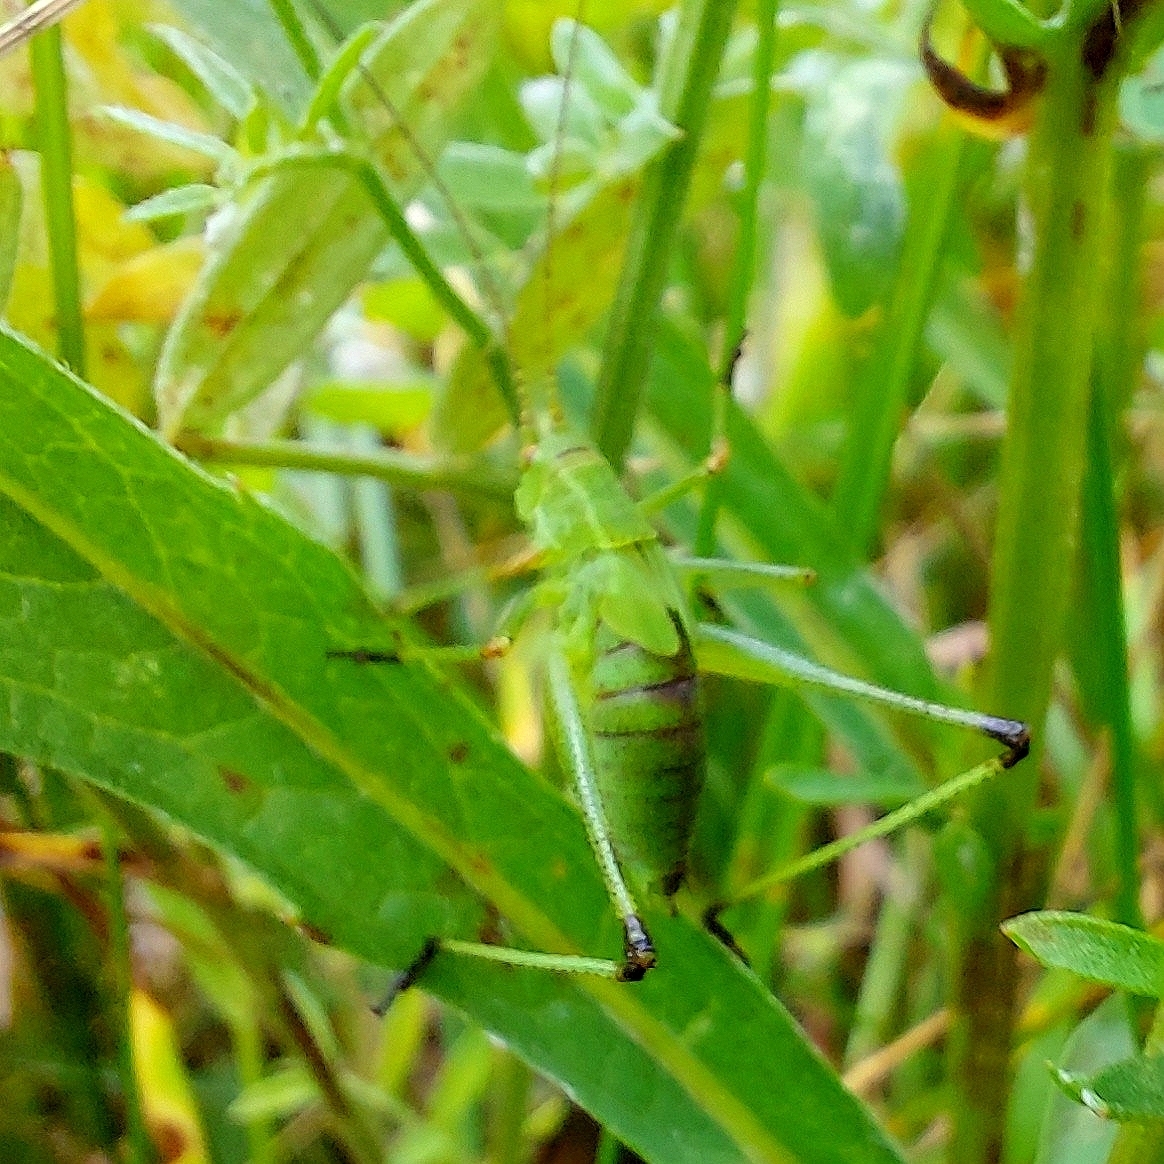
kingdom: Animalia
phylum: Arthropoda
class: Insecta
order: Orthoptera
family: Tettigoniidae
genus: Phaneroptera
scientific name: Phaneroptera falcata
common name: Sickle-bearing bush-cricket
